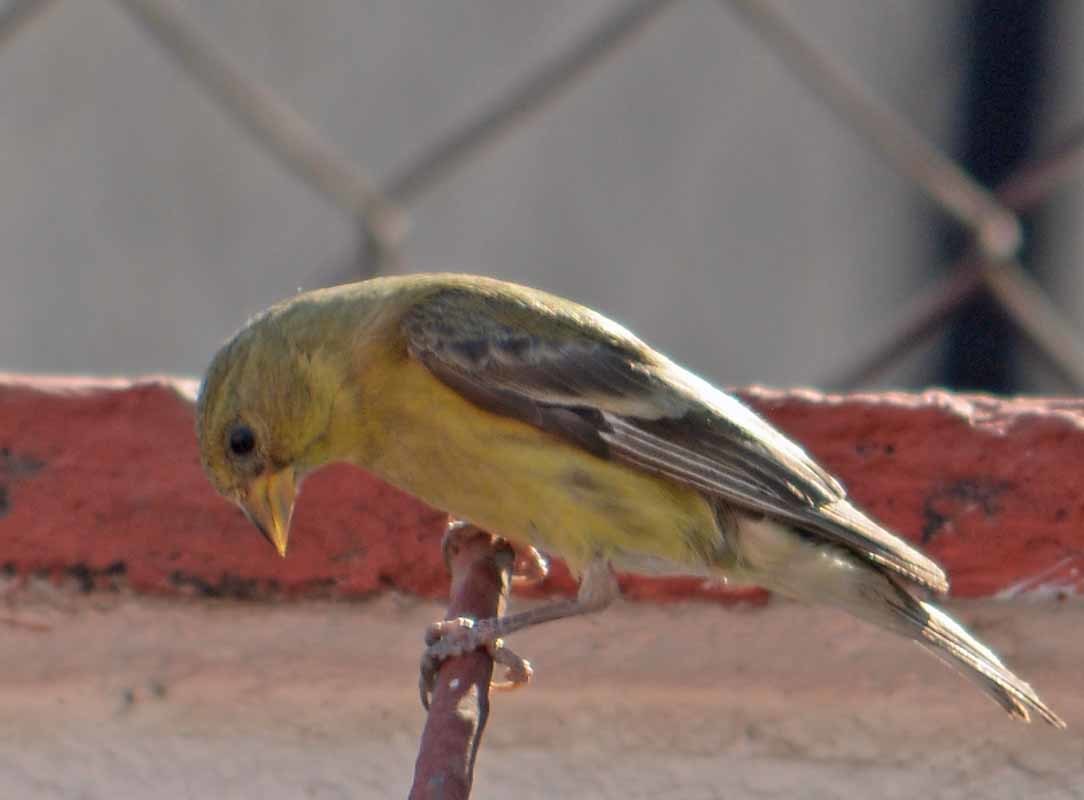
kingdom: Animalia
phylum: Chordata
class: Aves
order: Passeriformes
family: Fringillidae
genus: Spinus
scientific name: Spinus psaltria
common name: Lesser goldfinch
